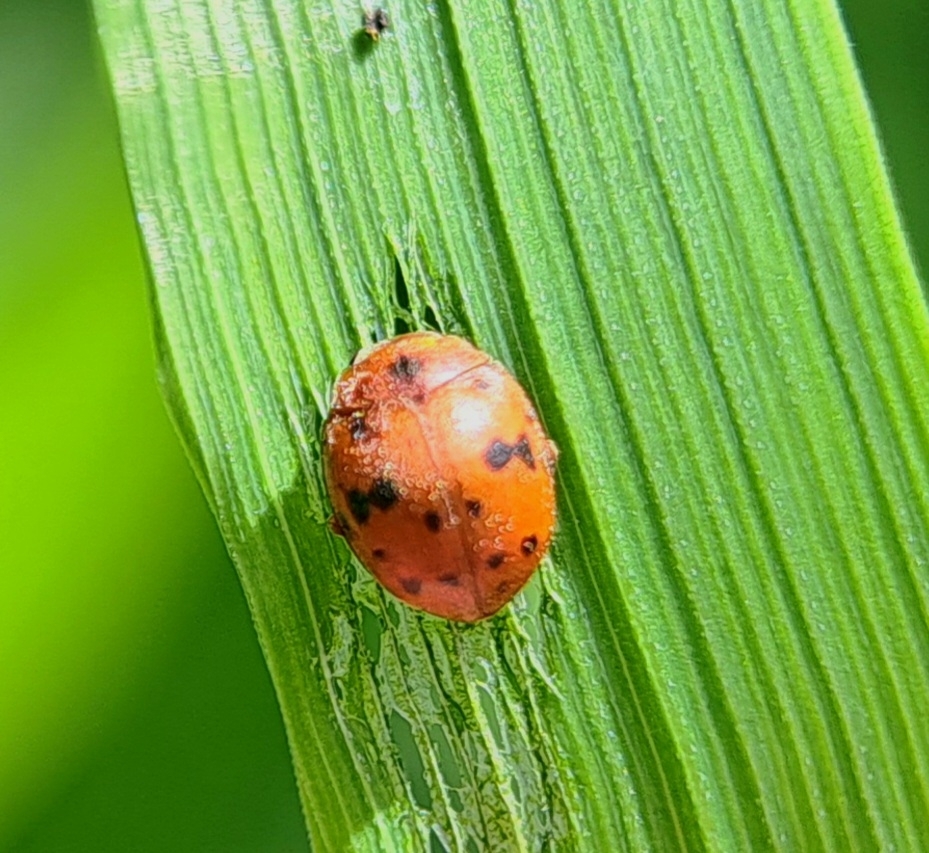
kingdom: Animalia
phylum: Arthropoda
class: Insecta
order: Coleoptera
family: Coccinellidae
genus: Subcoccinella
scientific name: Subcoccinella vigintiquatuorpunctata
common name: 24-spot ladybird
